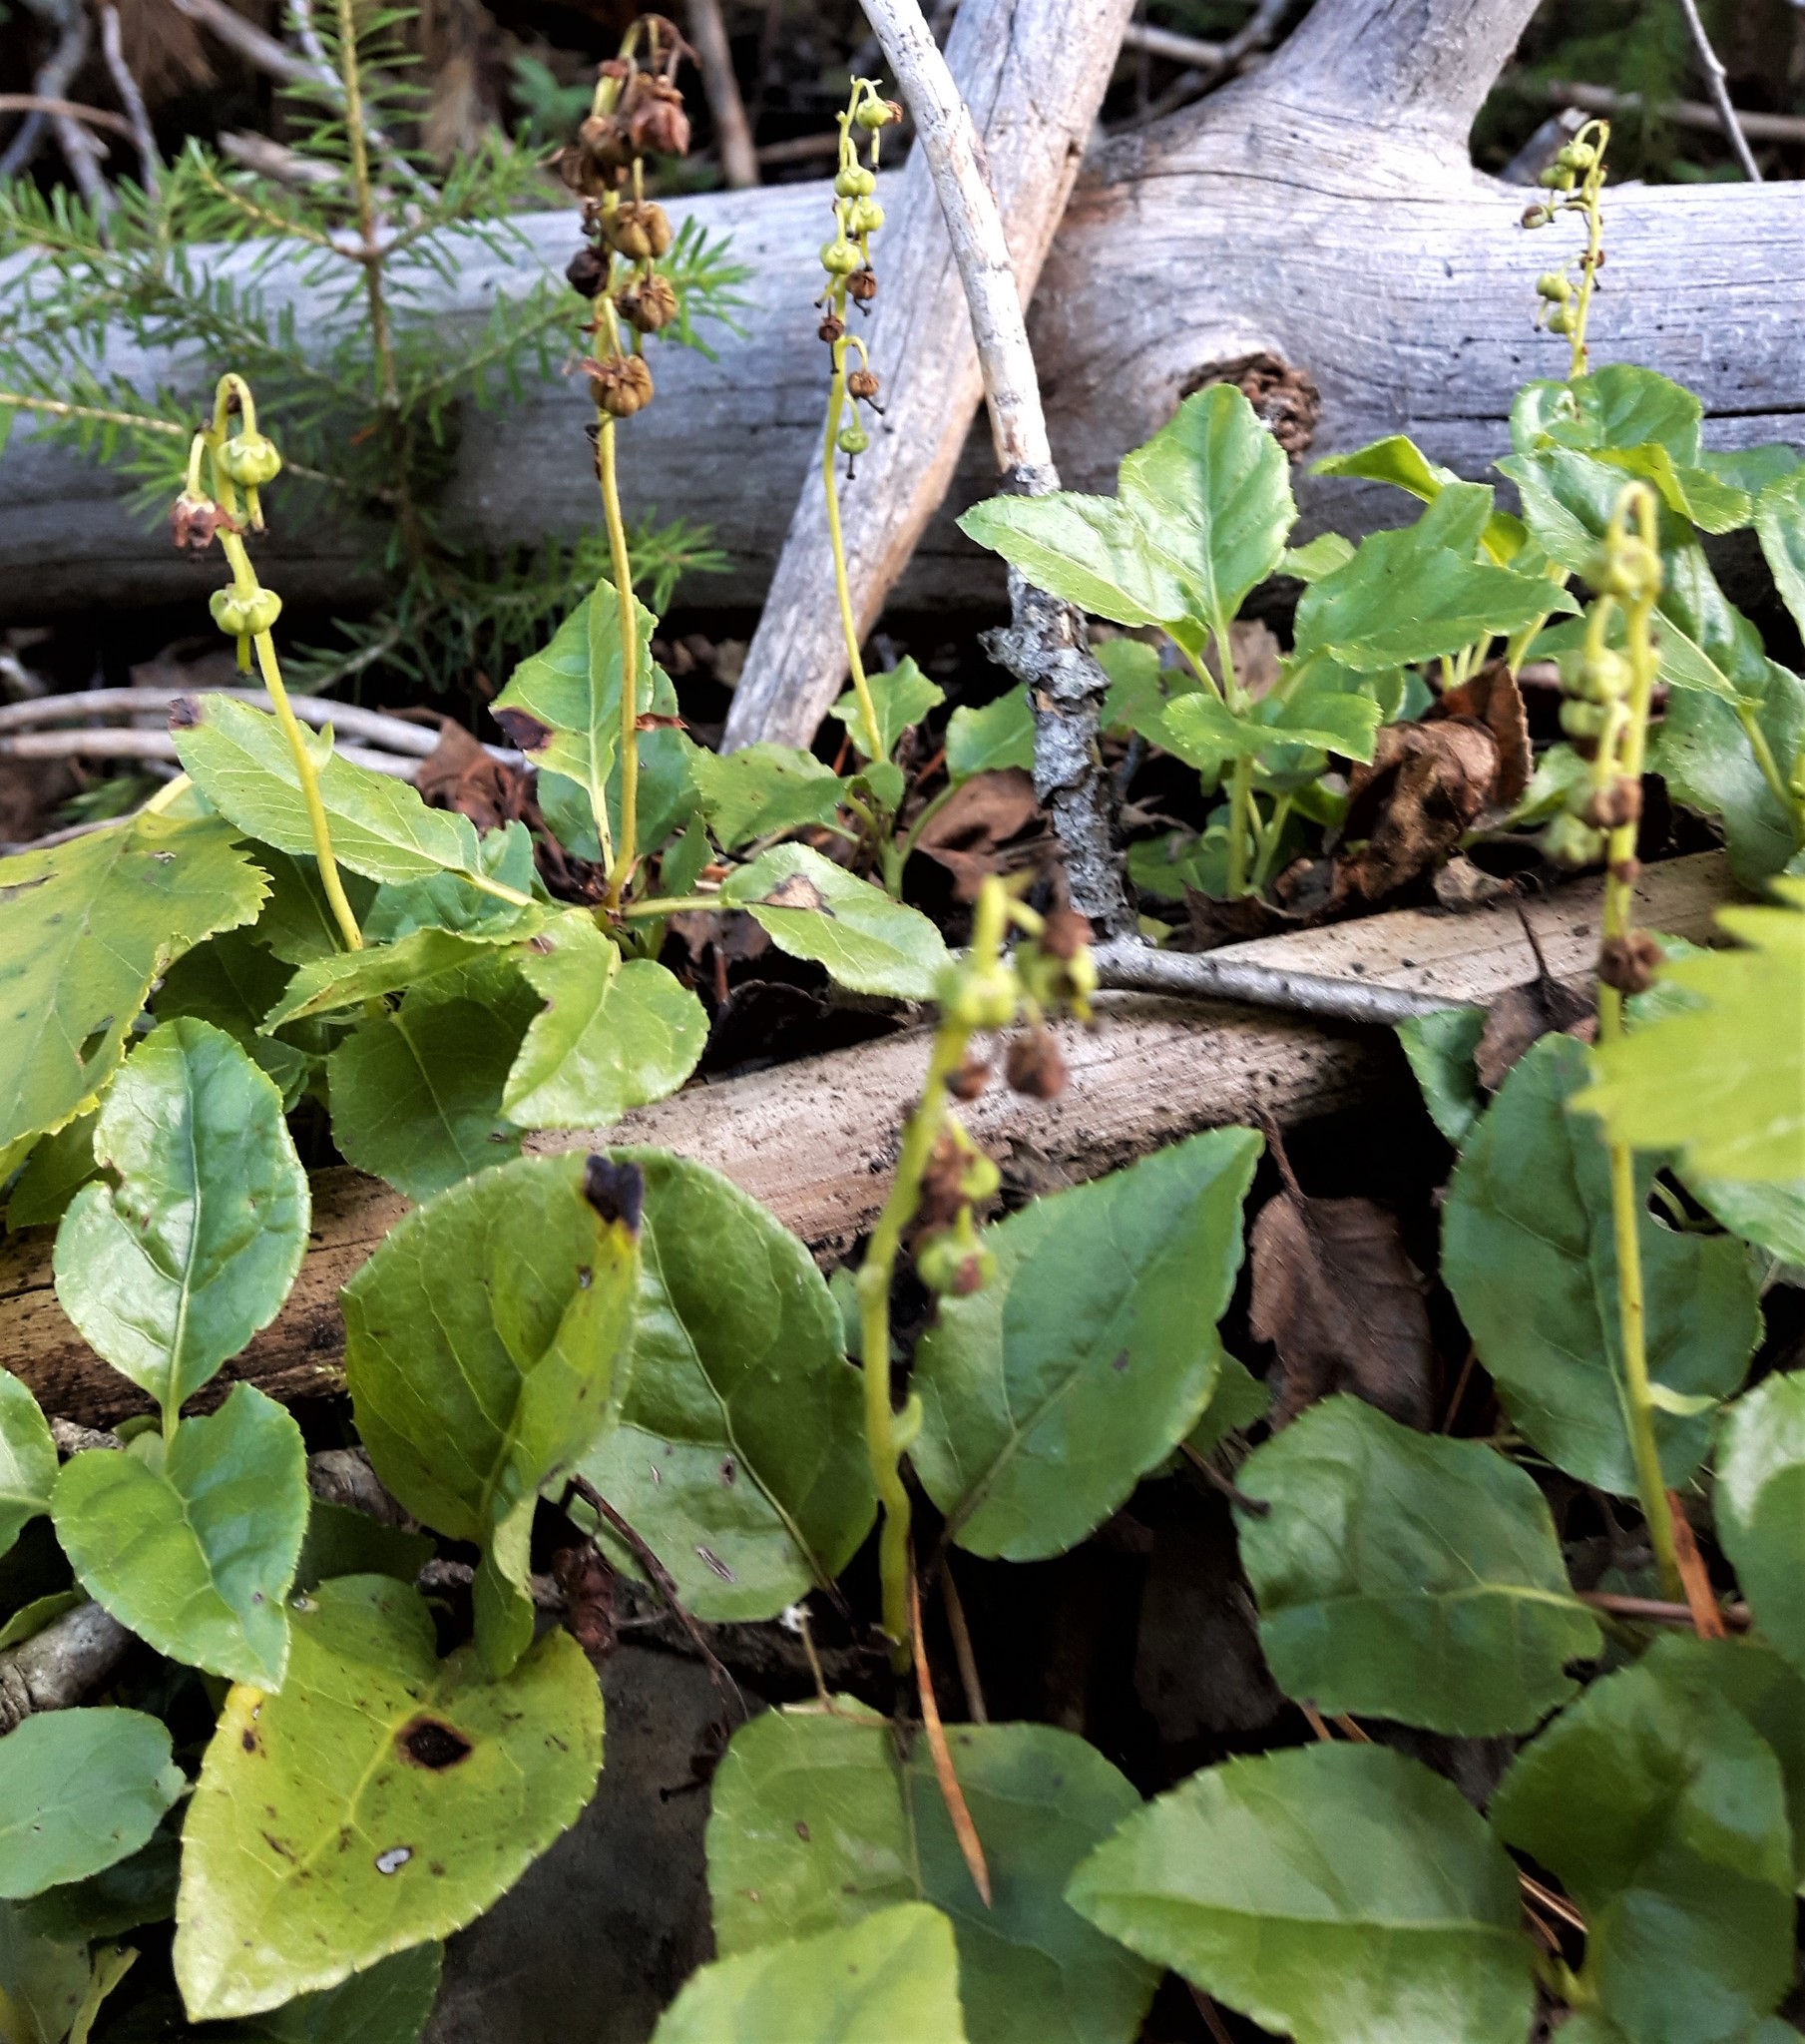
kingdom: Plantae
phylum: Tracheophyta
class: Magnoliopsida
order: Ericales
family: Ericaceae
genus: Orthilia
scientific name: Orthilia secunda
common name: One-sided orthilia
